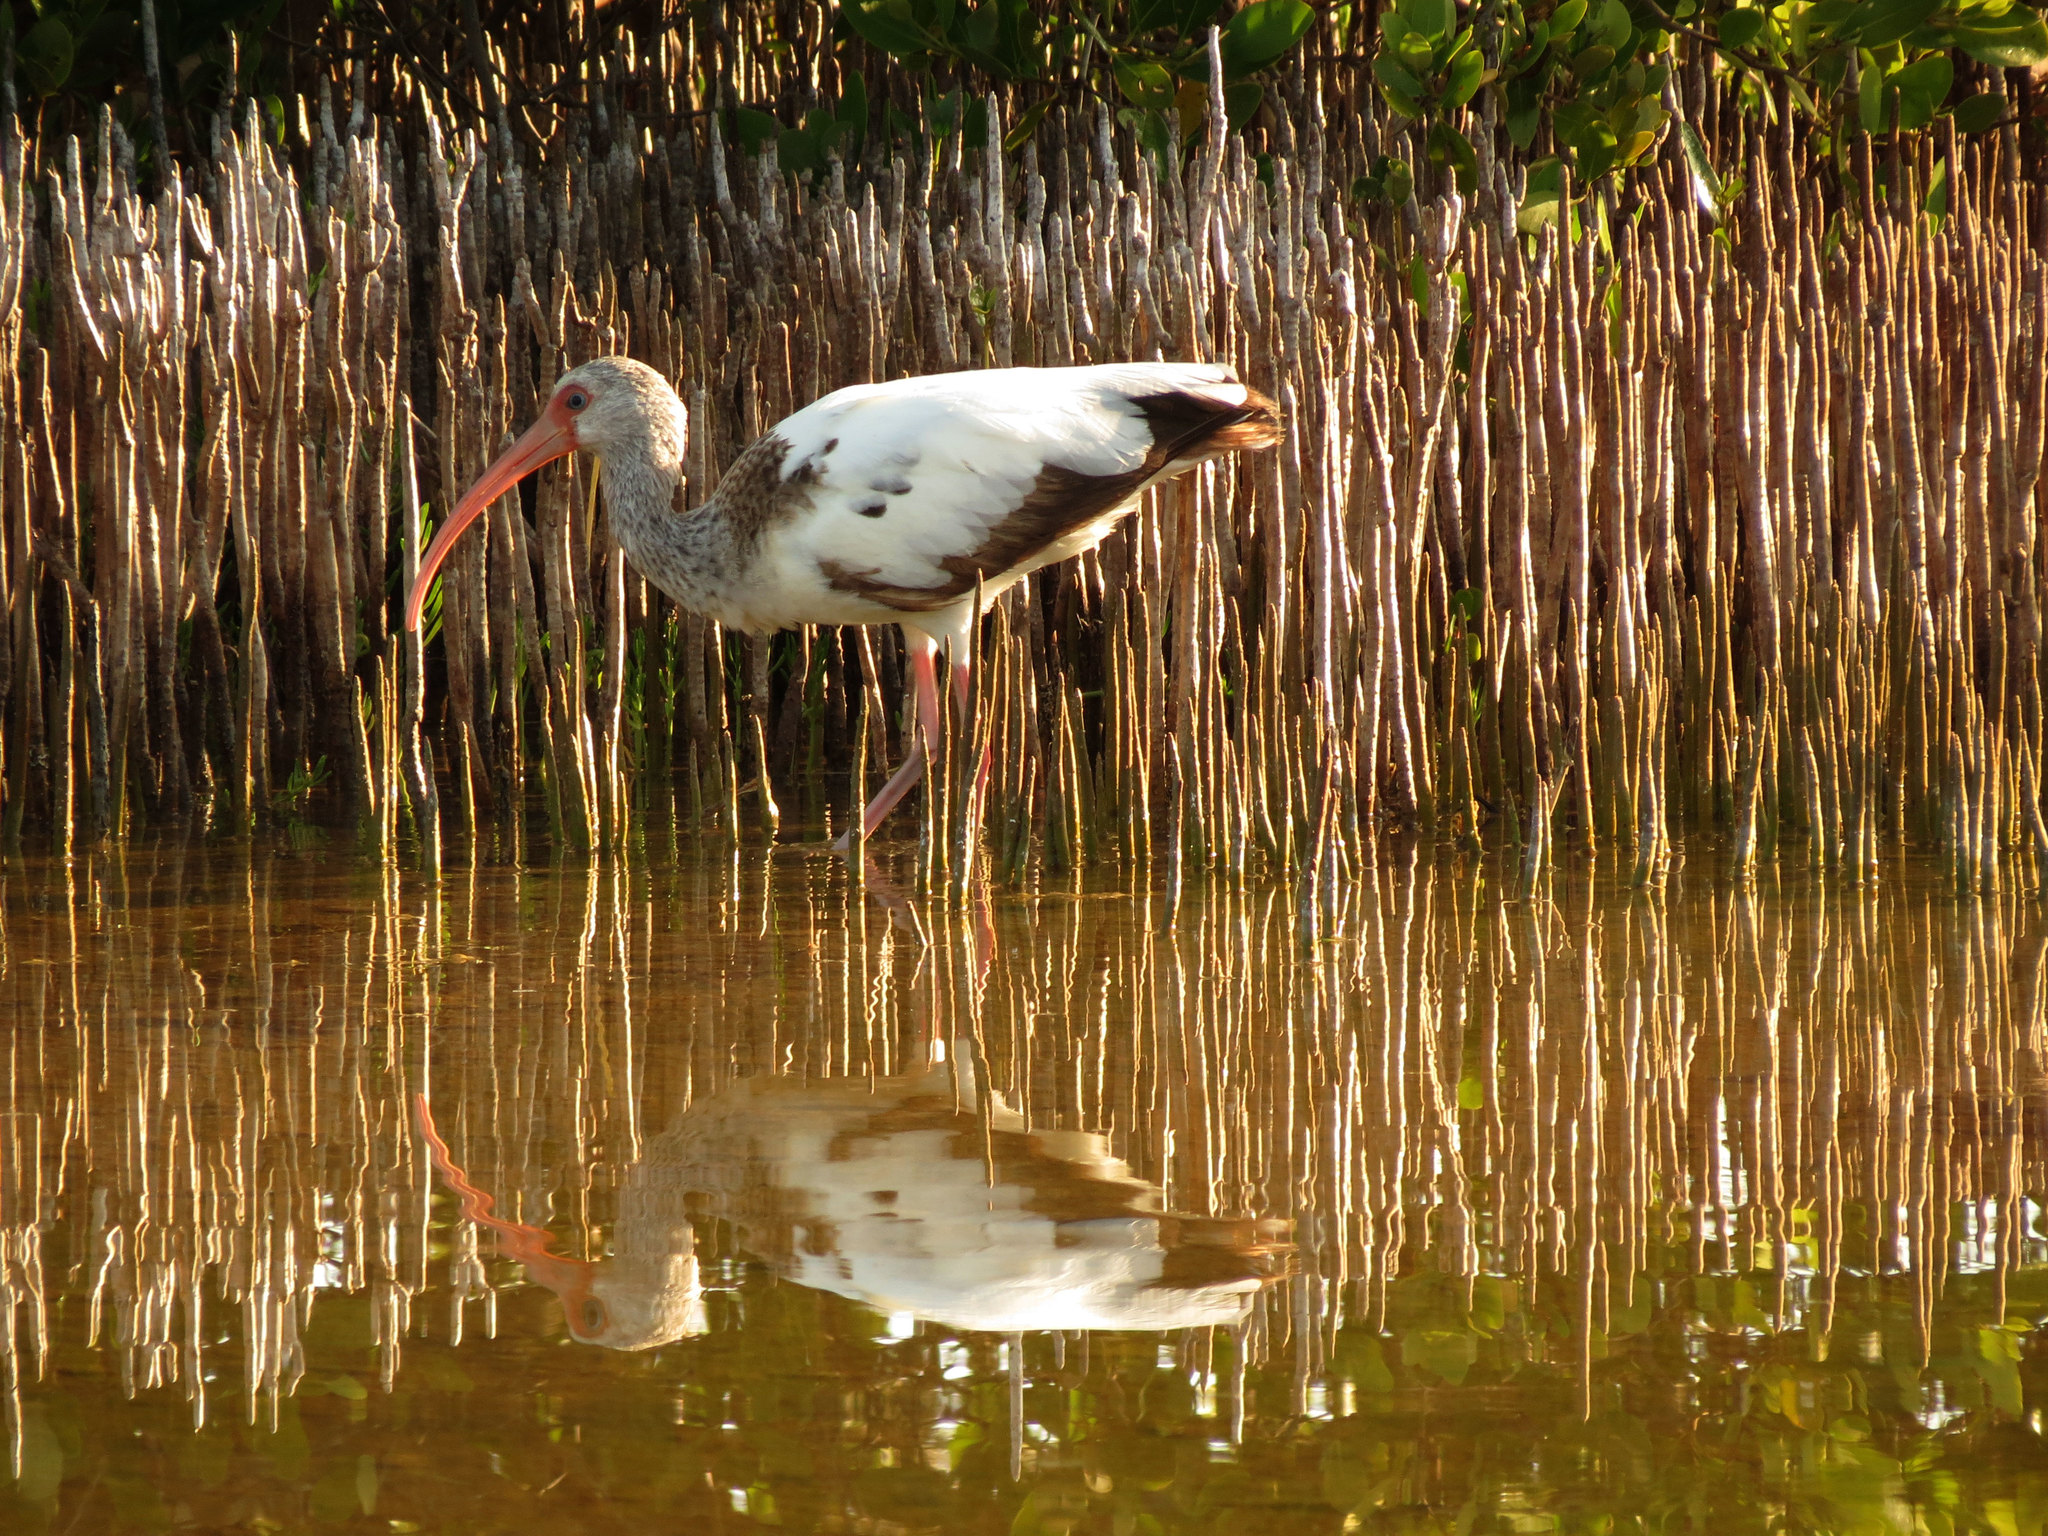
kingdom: Animalia
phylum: Chordata
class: Aves
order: Pelecaniformes
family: Threskiornithidae
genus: Eudocimus
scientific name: Eudocimus albus
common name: White ibis
